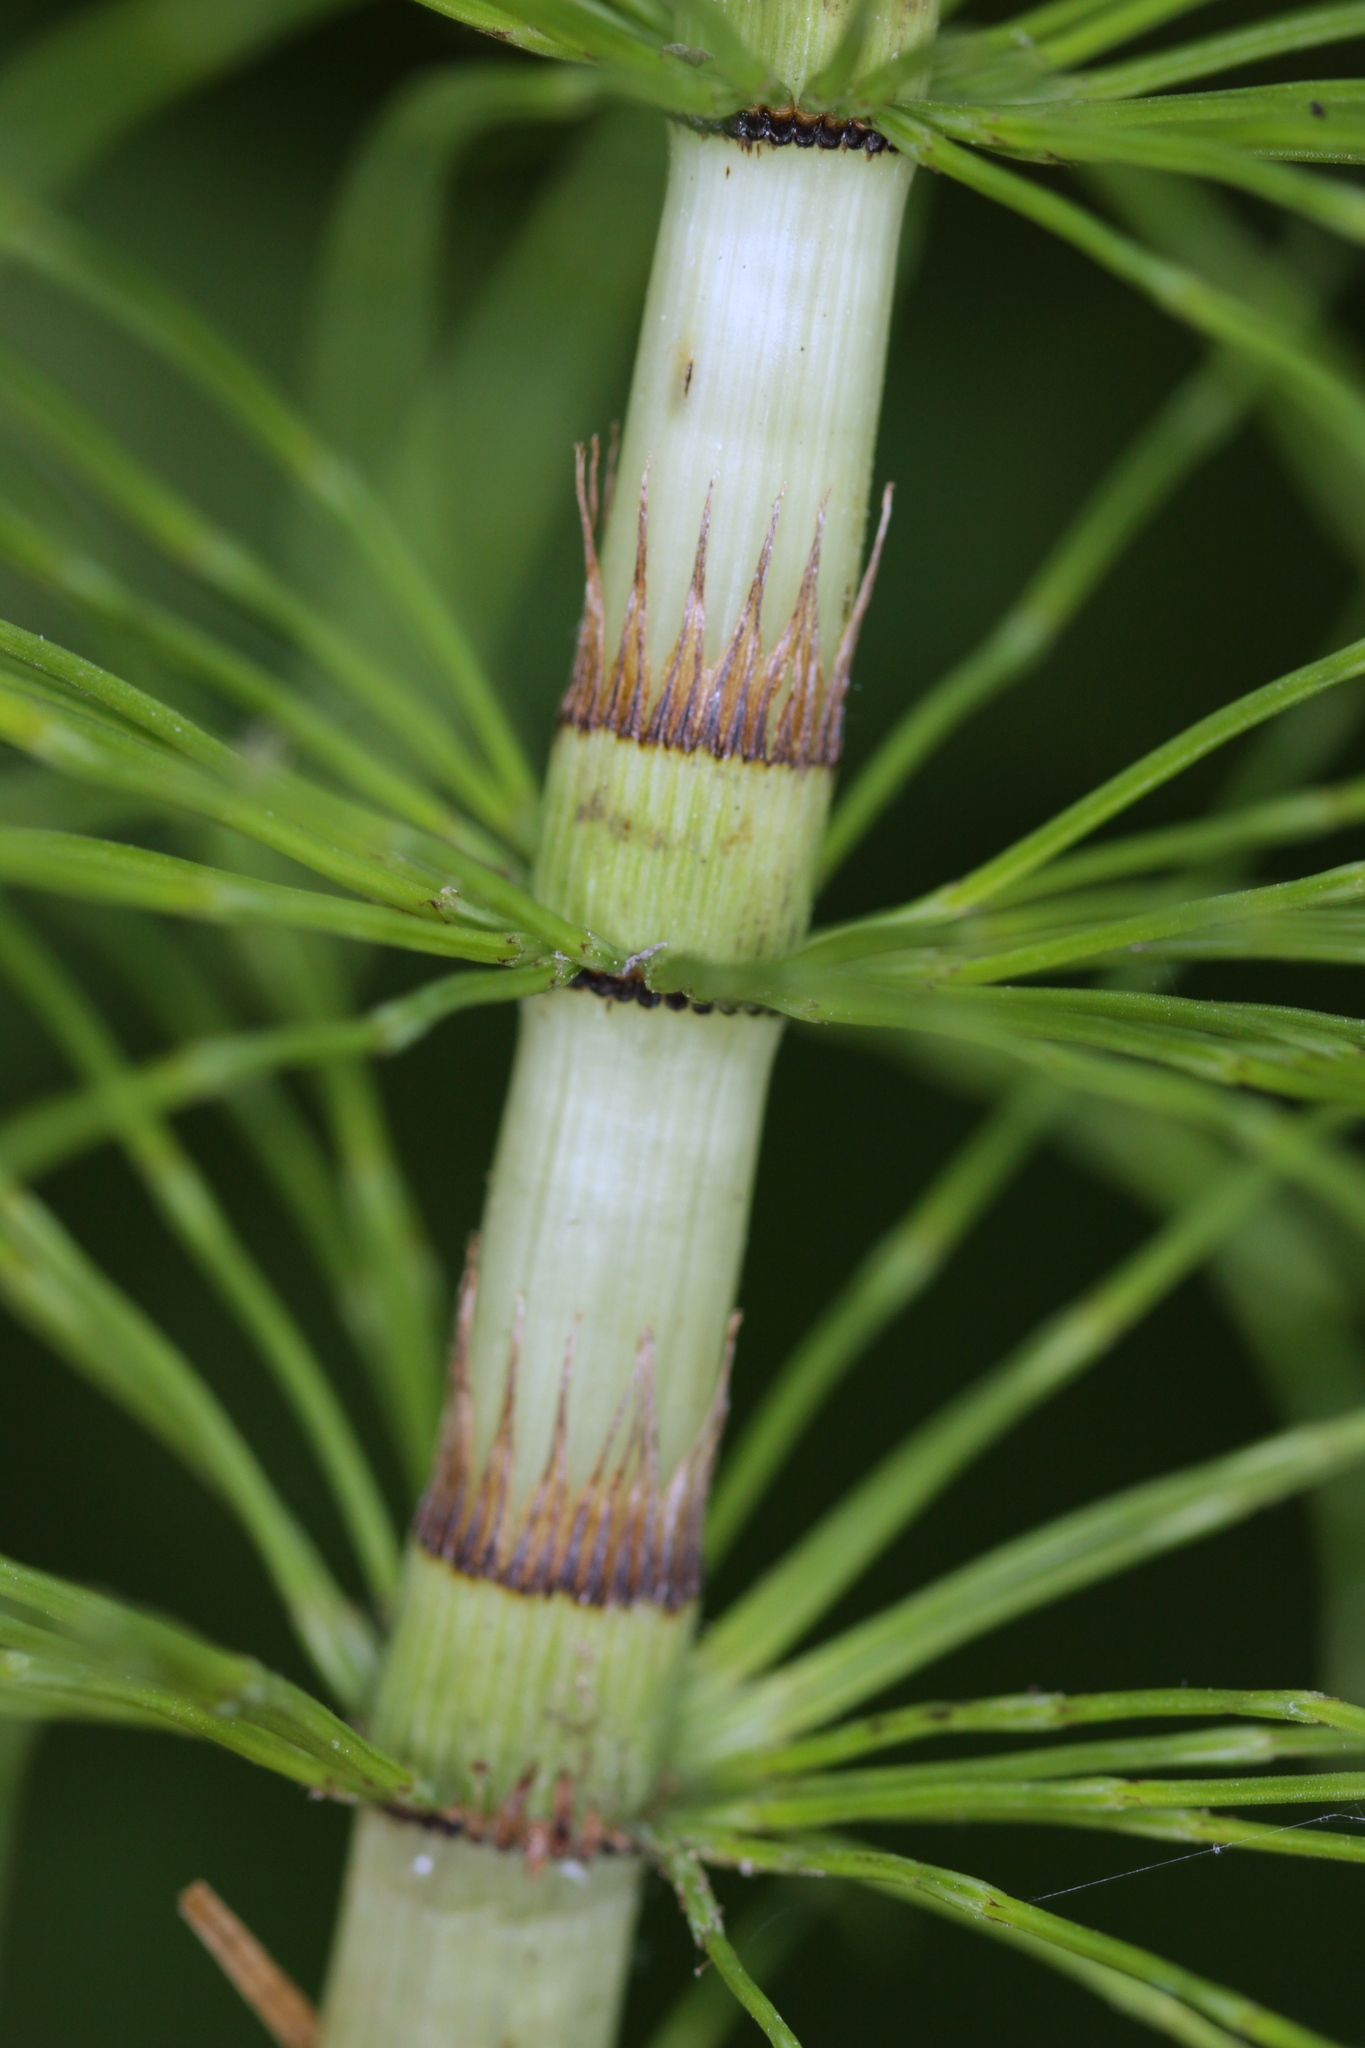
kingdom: Plantae
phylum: Tracheophyta
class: Polypodiopsida
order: Equisetales
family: Equisetaceae
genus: Equisetum
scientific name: Equisetum telmateia
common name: Great horsetail
